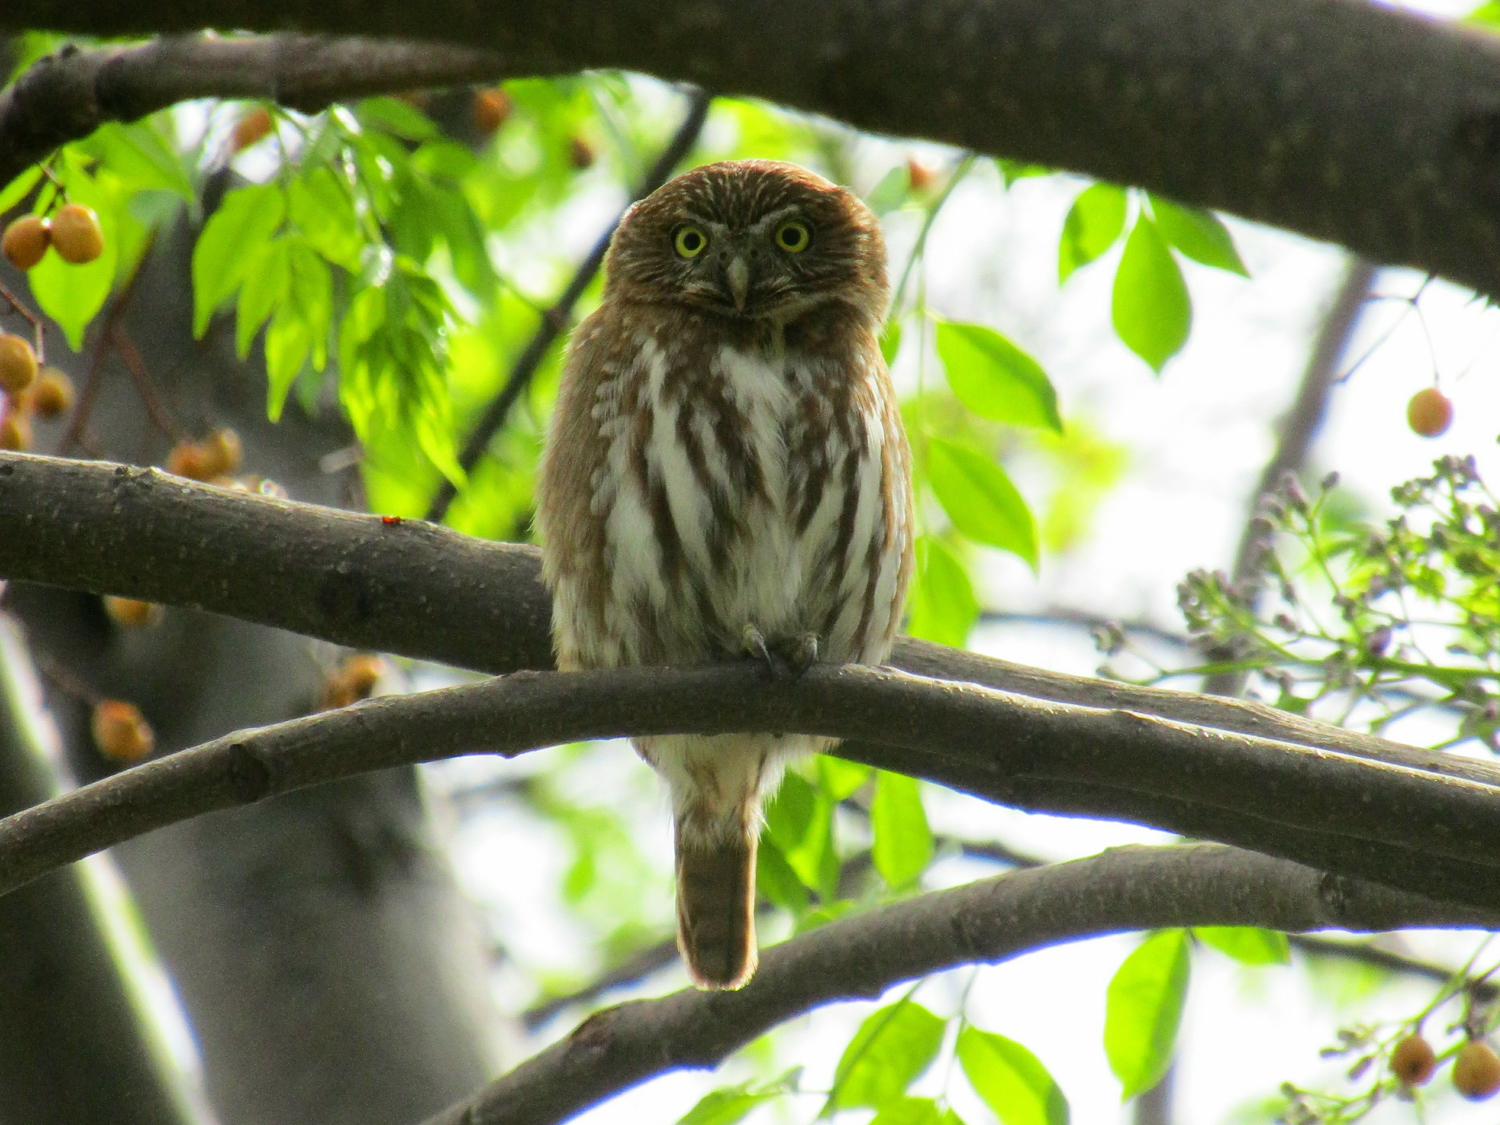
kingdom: Animalia
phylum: Chordata
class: Aves
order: Strigiformes
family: Strigidae
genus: Glaucidium
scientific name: Glaucidium brasilianum
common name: Ferruginous pygmy-owl
